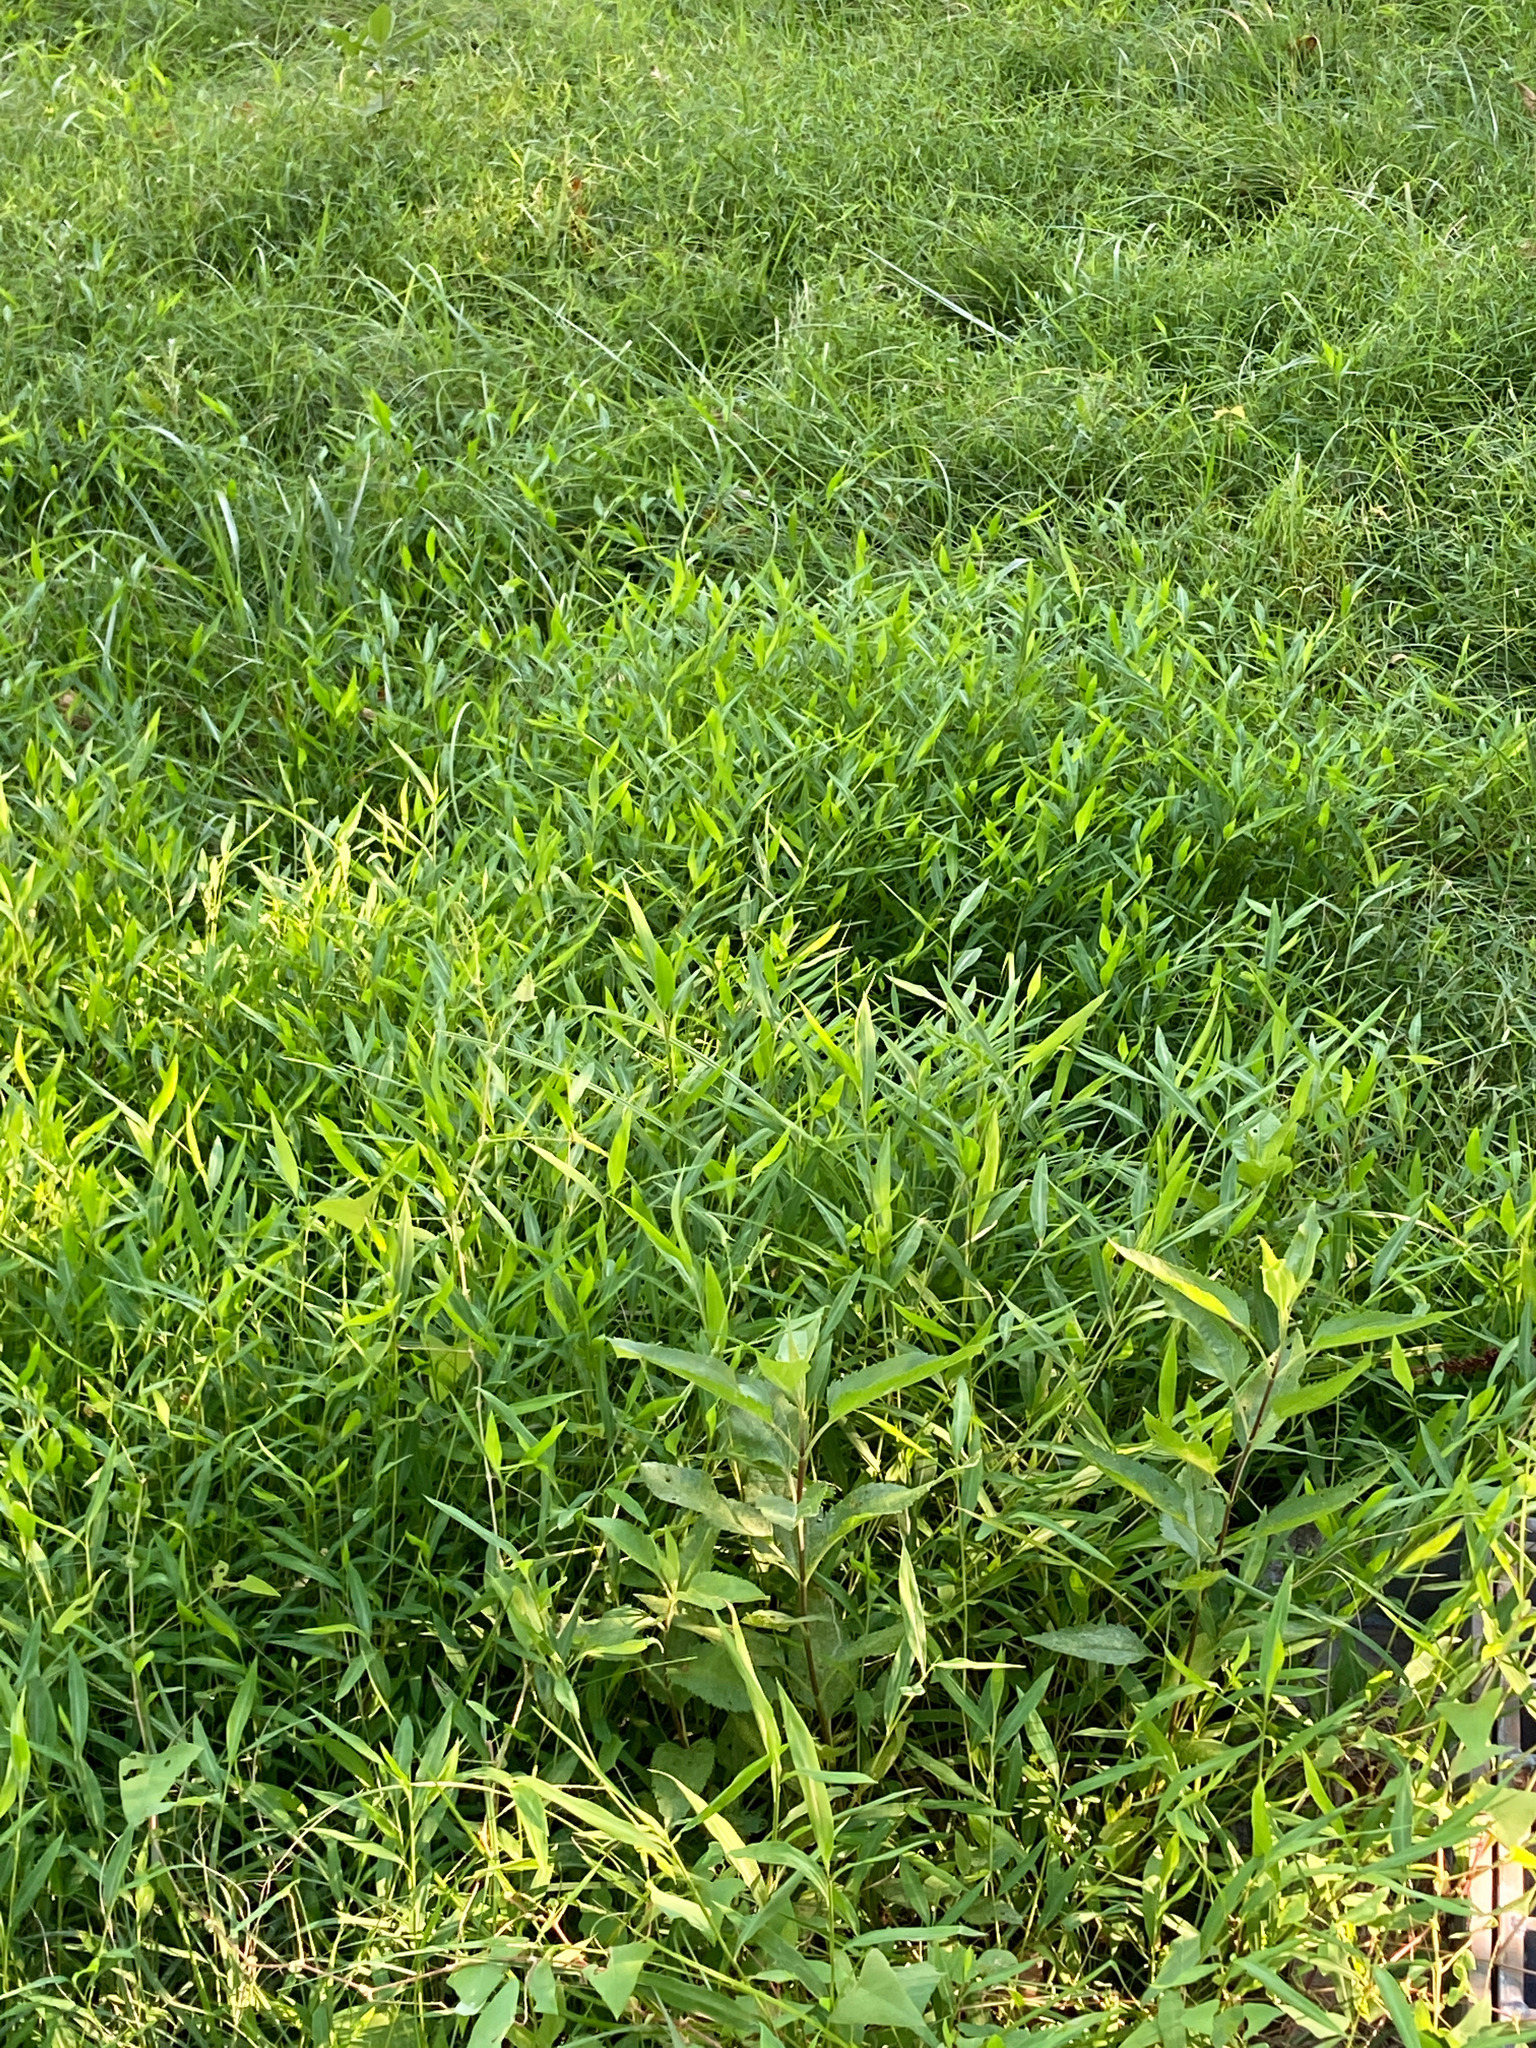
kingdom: Plantae
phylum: Tracheophyta
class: Liliopsida
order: Poales
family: Poaceae
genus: Microstegium
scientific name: Microstegium vimineum
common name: Japanese stiltgrass
